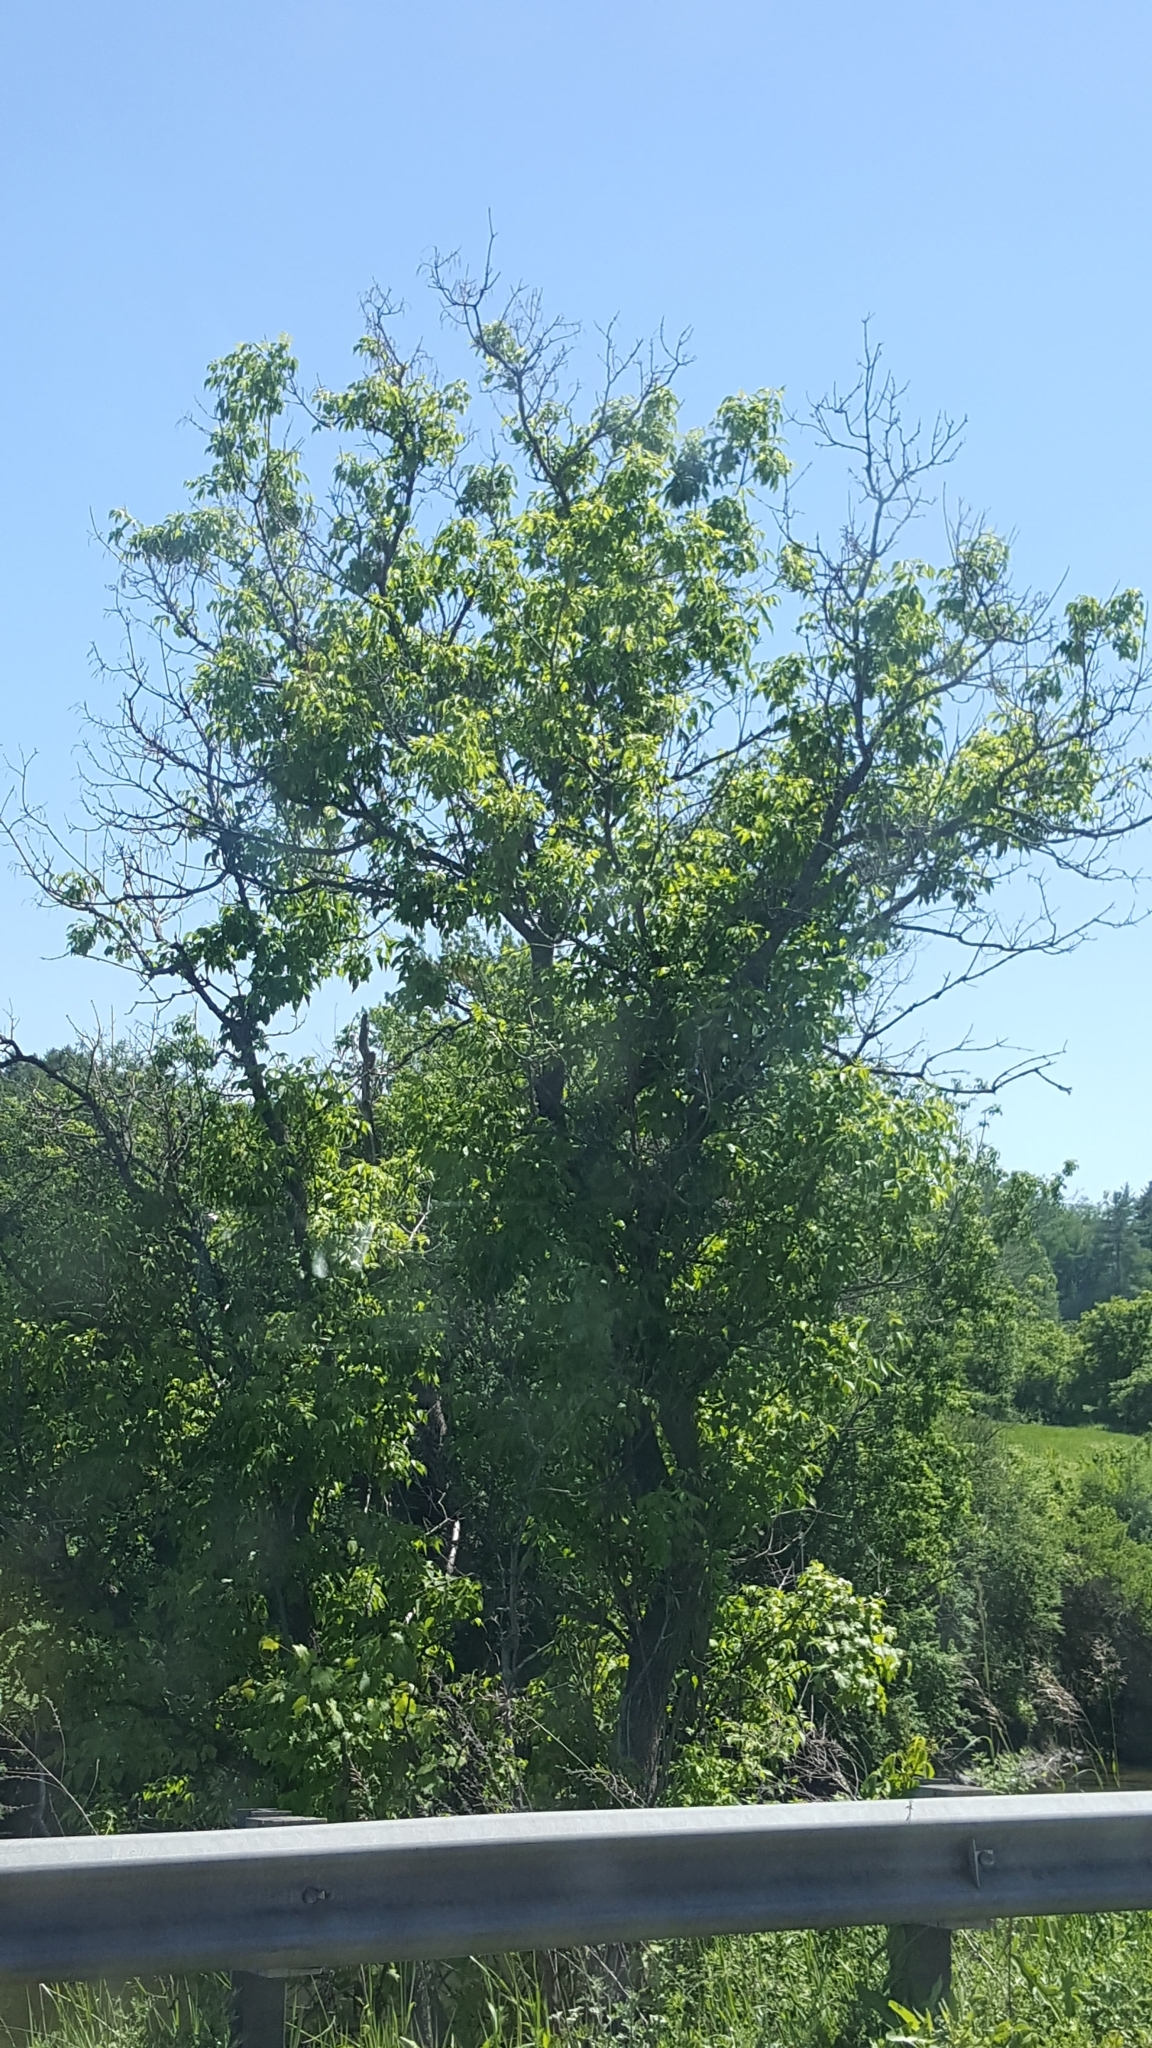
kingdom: Plantae
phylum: Tracheophyta
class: Magnoliopsida
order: Sapindales
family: Sapindaceae
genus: Acer
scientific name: Acer negundo
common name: Ashleaf maple
